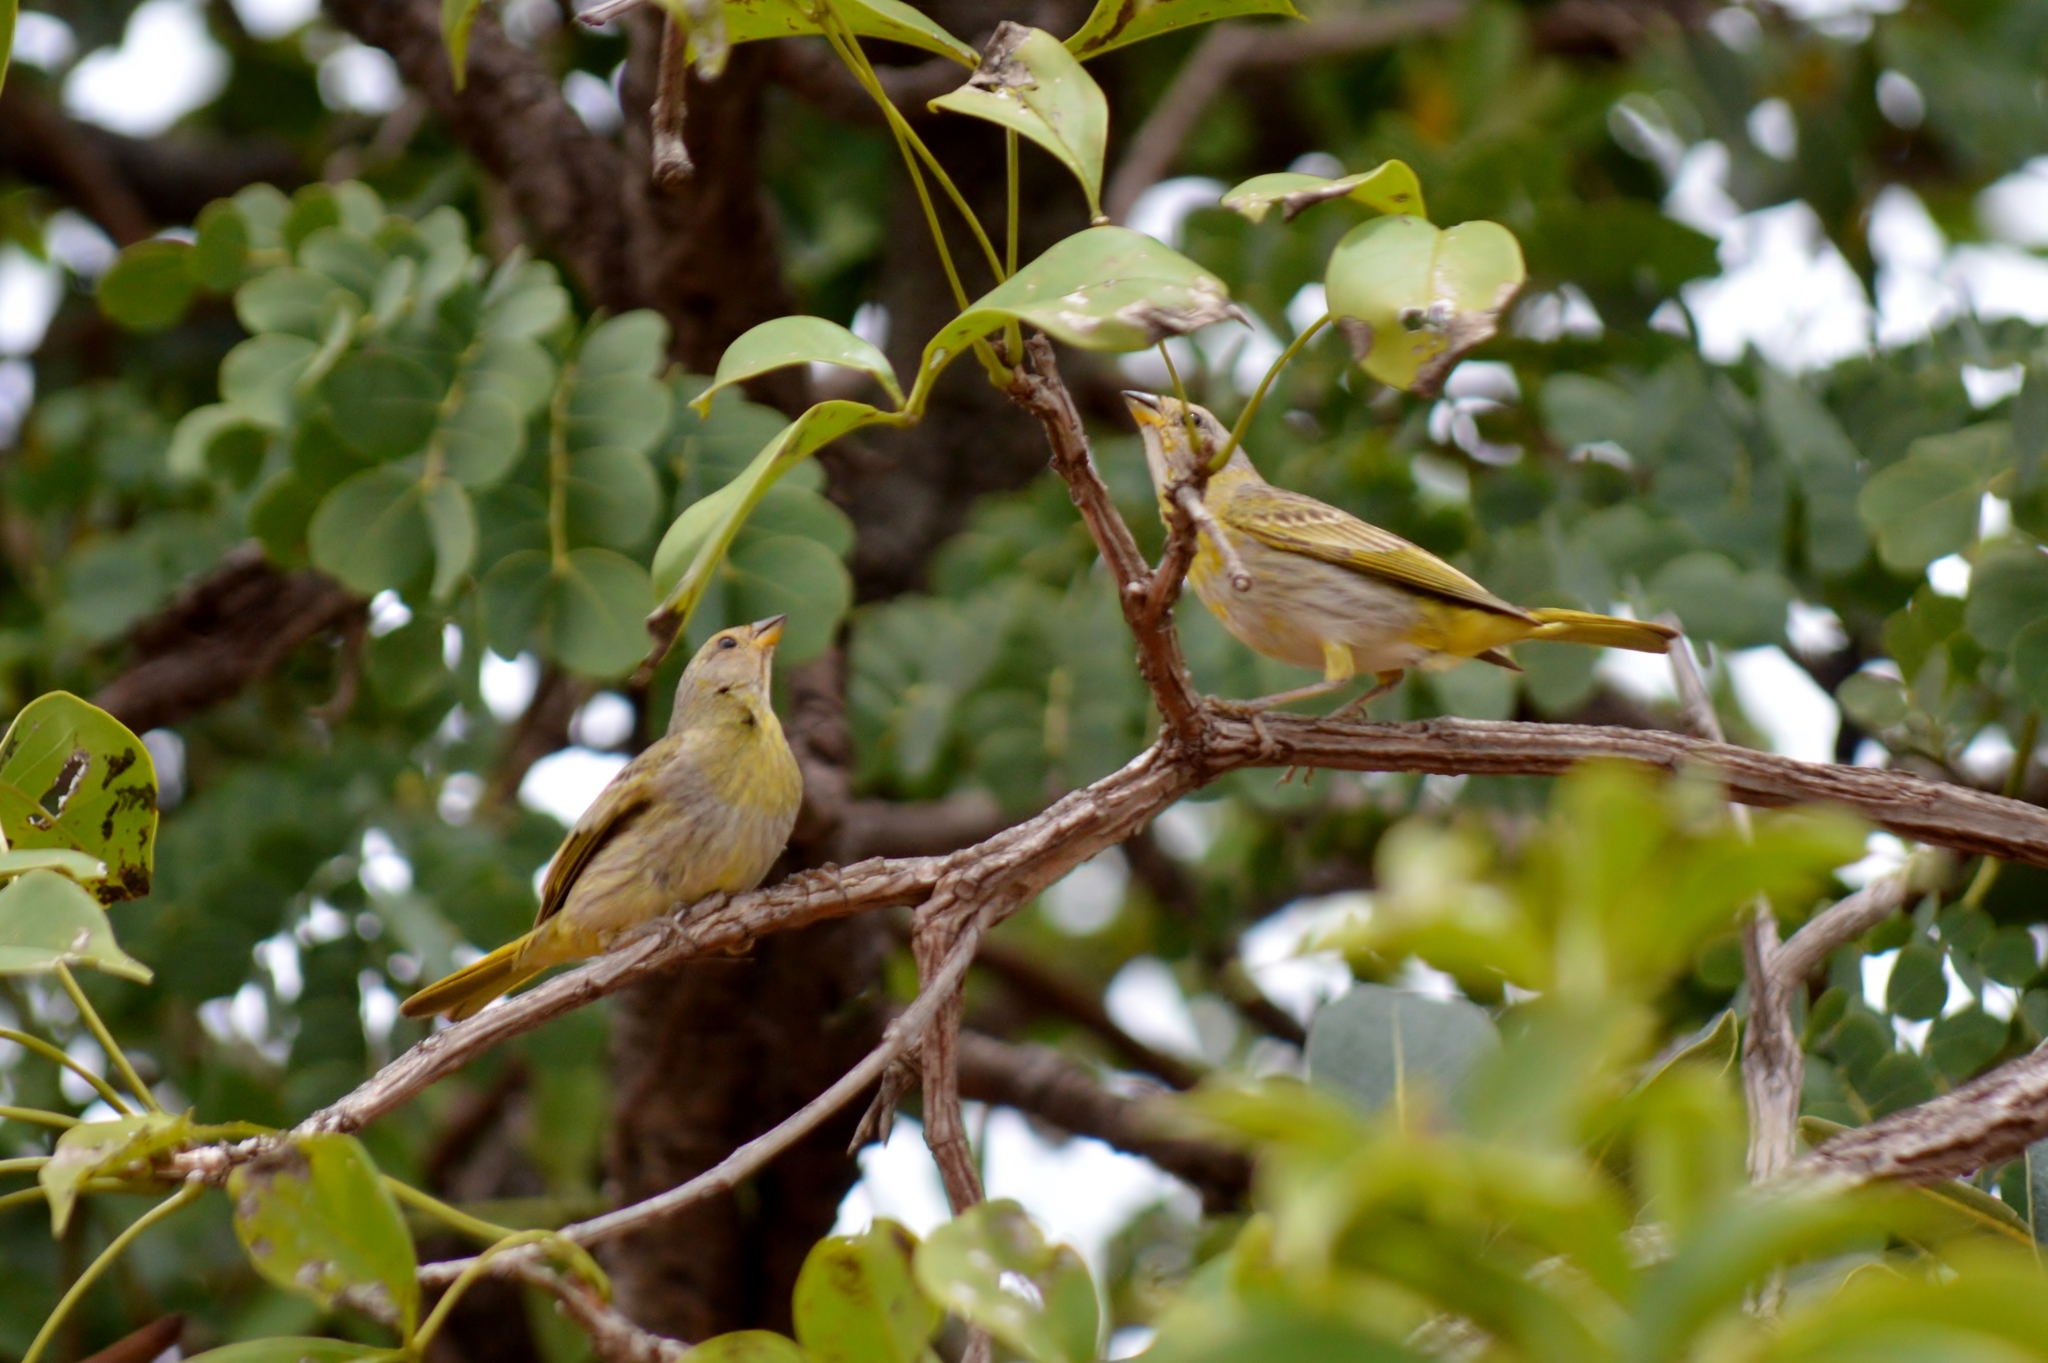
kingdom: Animalia
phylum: Chordata
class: Aves
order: Passeriformes
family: Thraupidae
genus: Sicalis
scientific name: Sicalis flaveola
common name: Saffron finch
